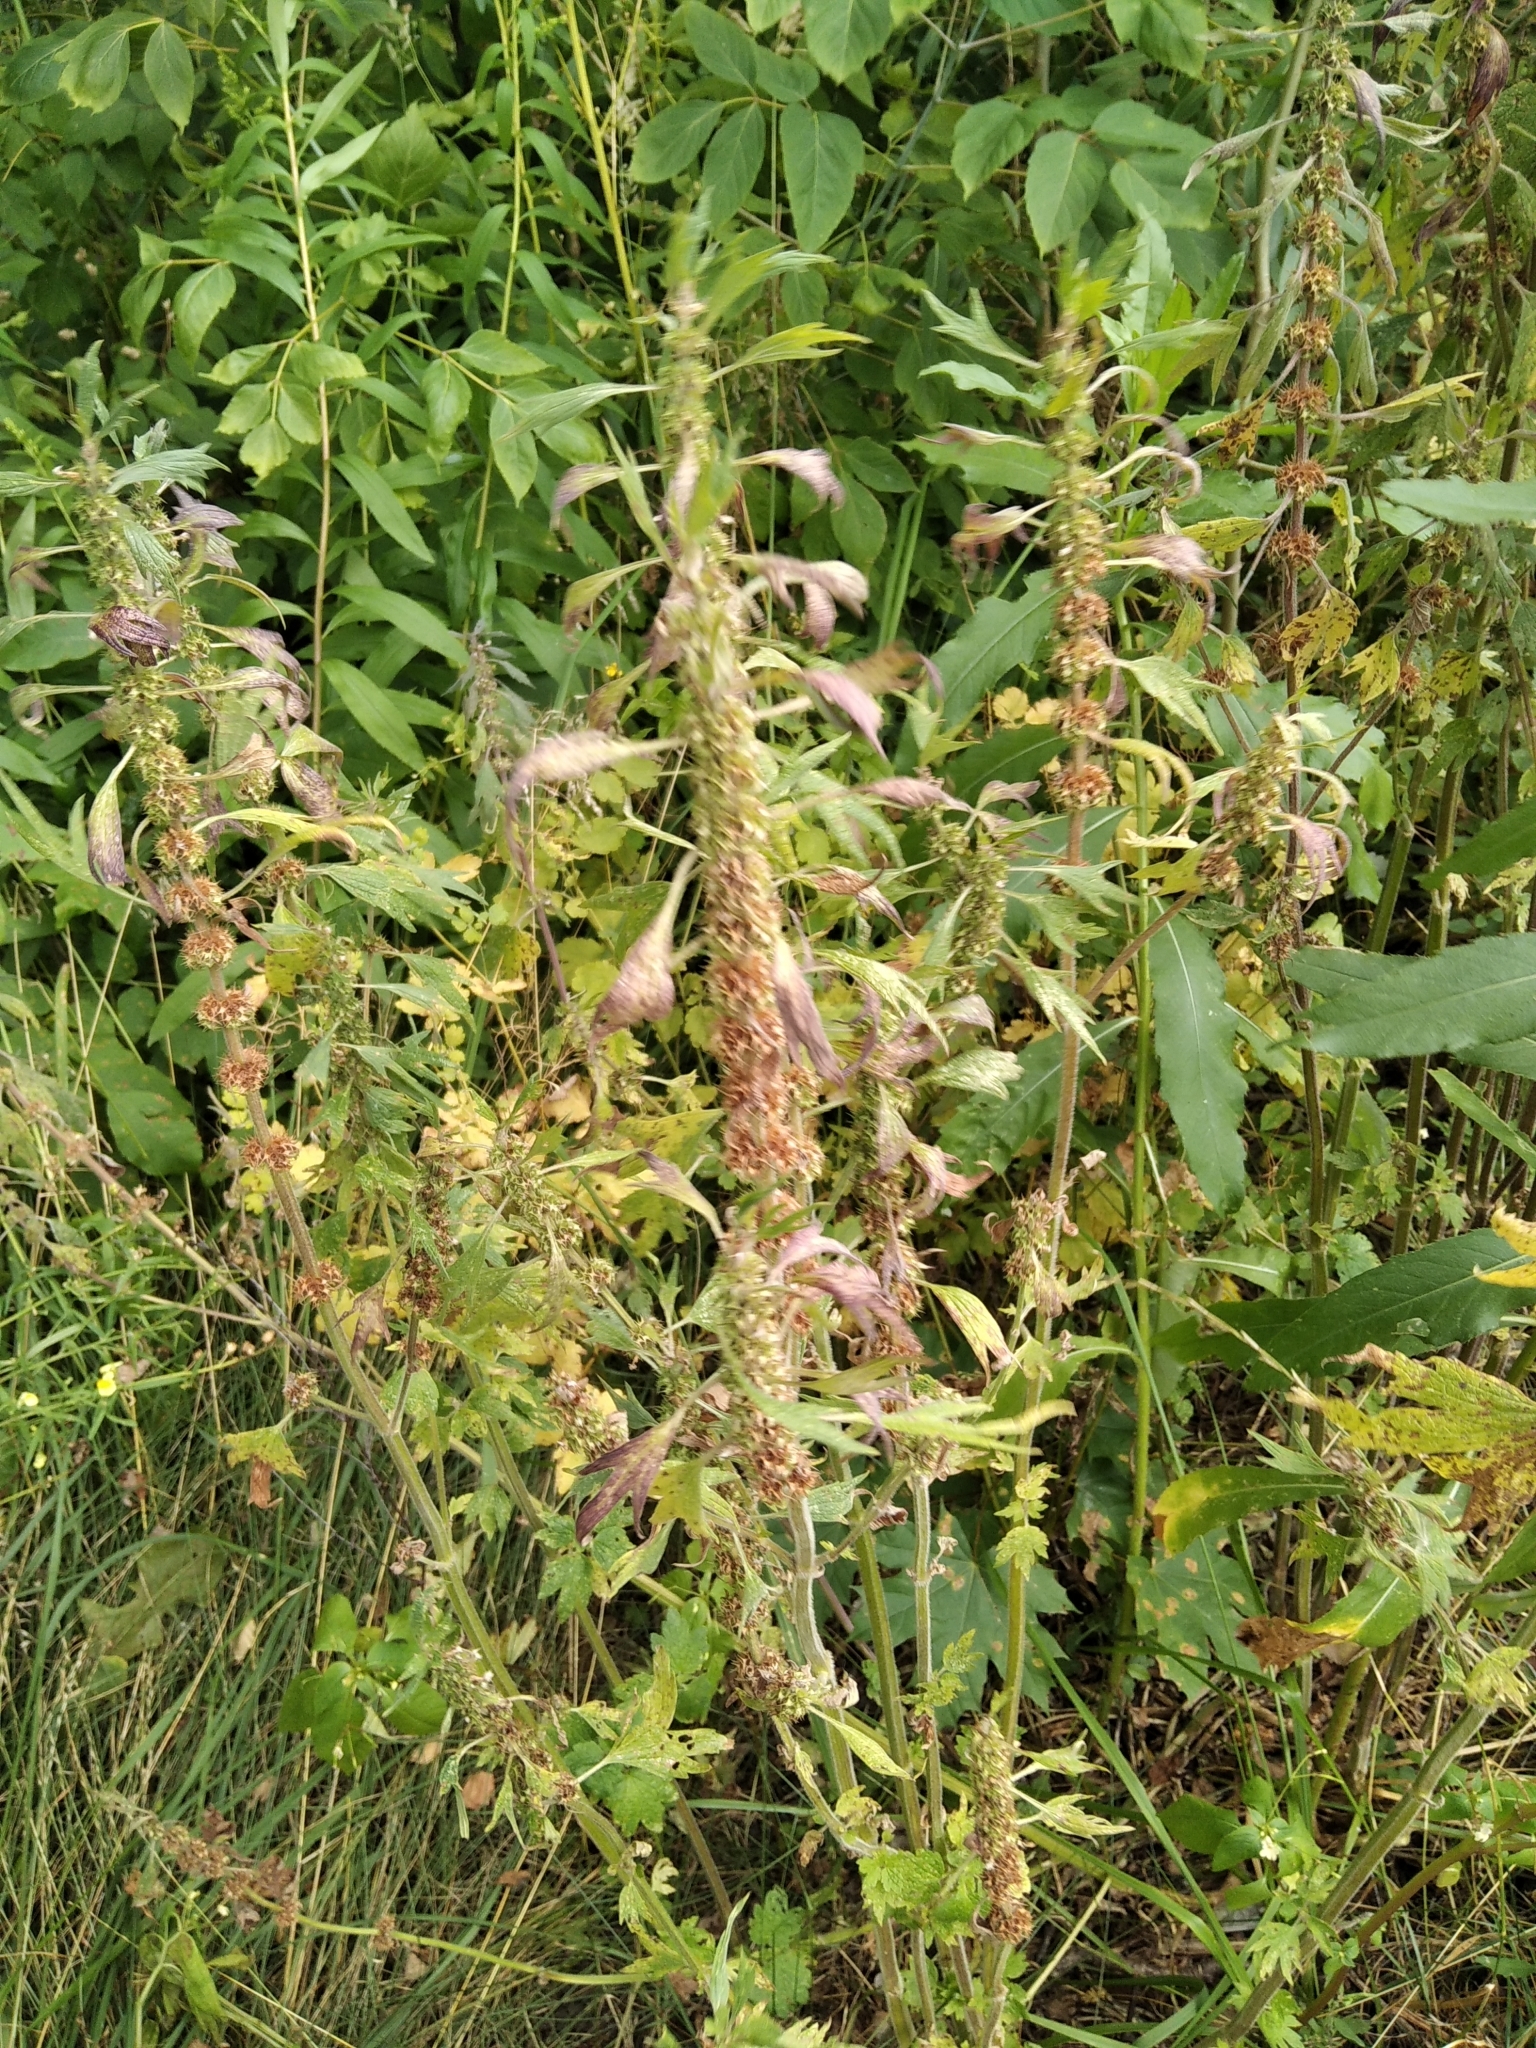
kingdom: Plantae
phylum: Tracheophyta
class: Magnoliopsida
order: Lamiales
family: Lamiaceae
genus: Leonurus
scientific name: Leonurus quinquelobatus
